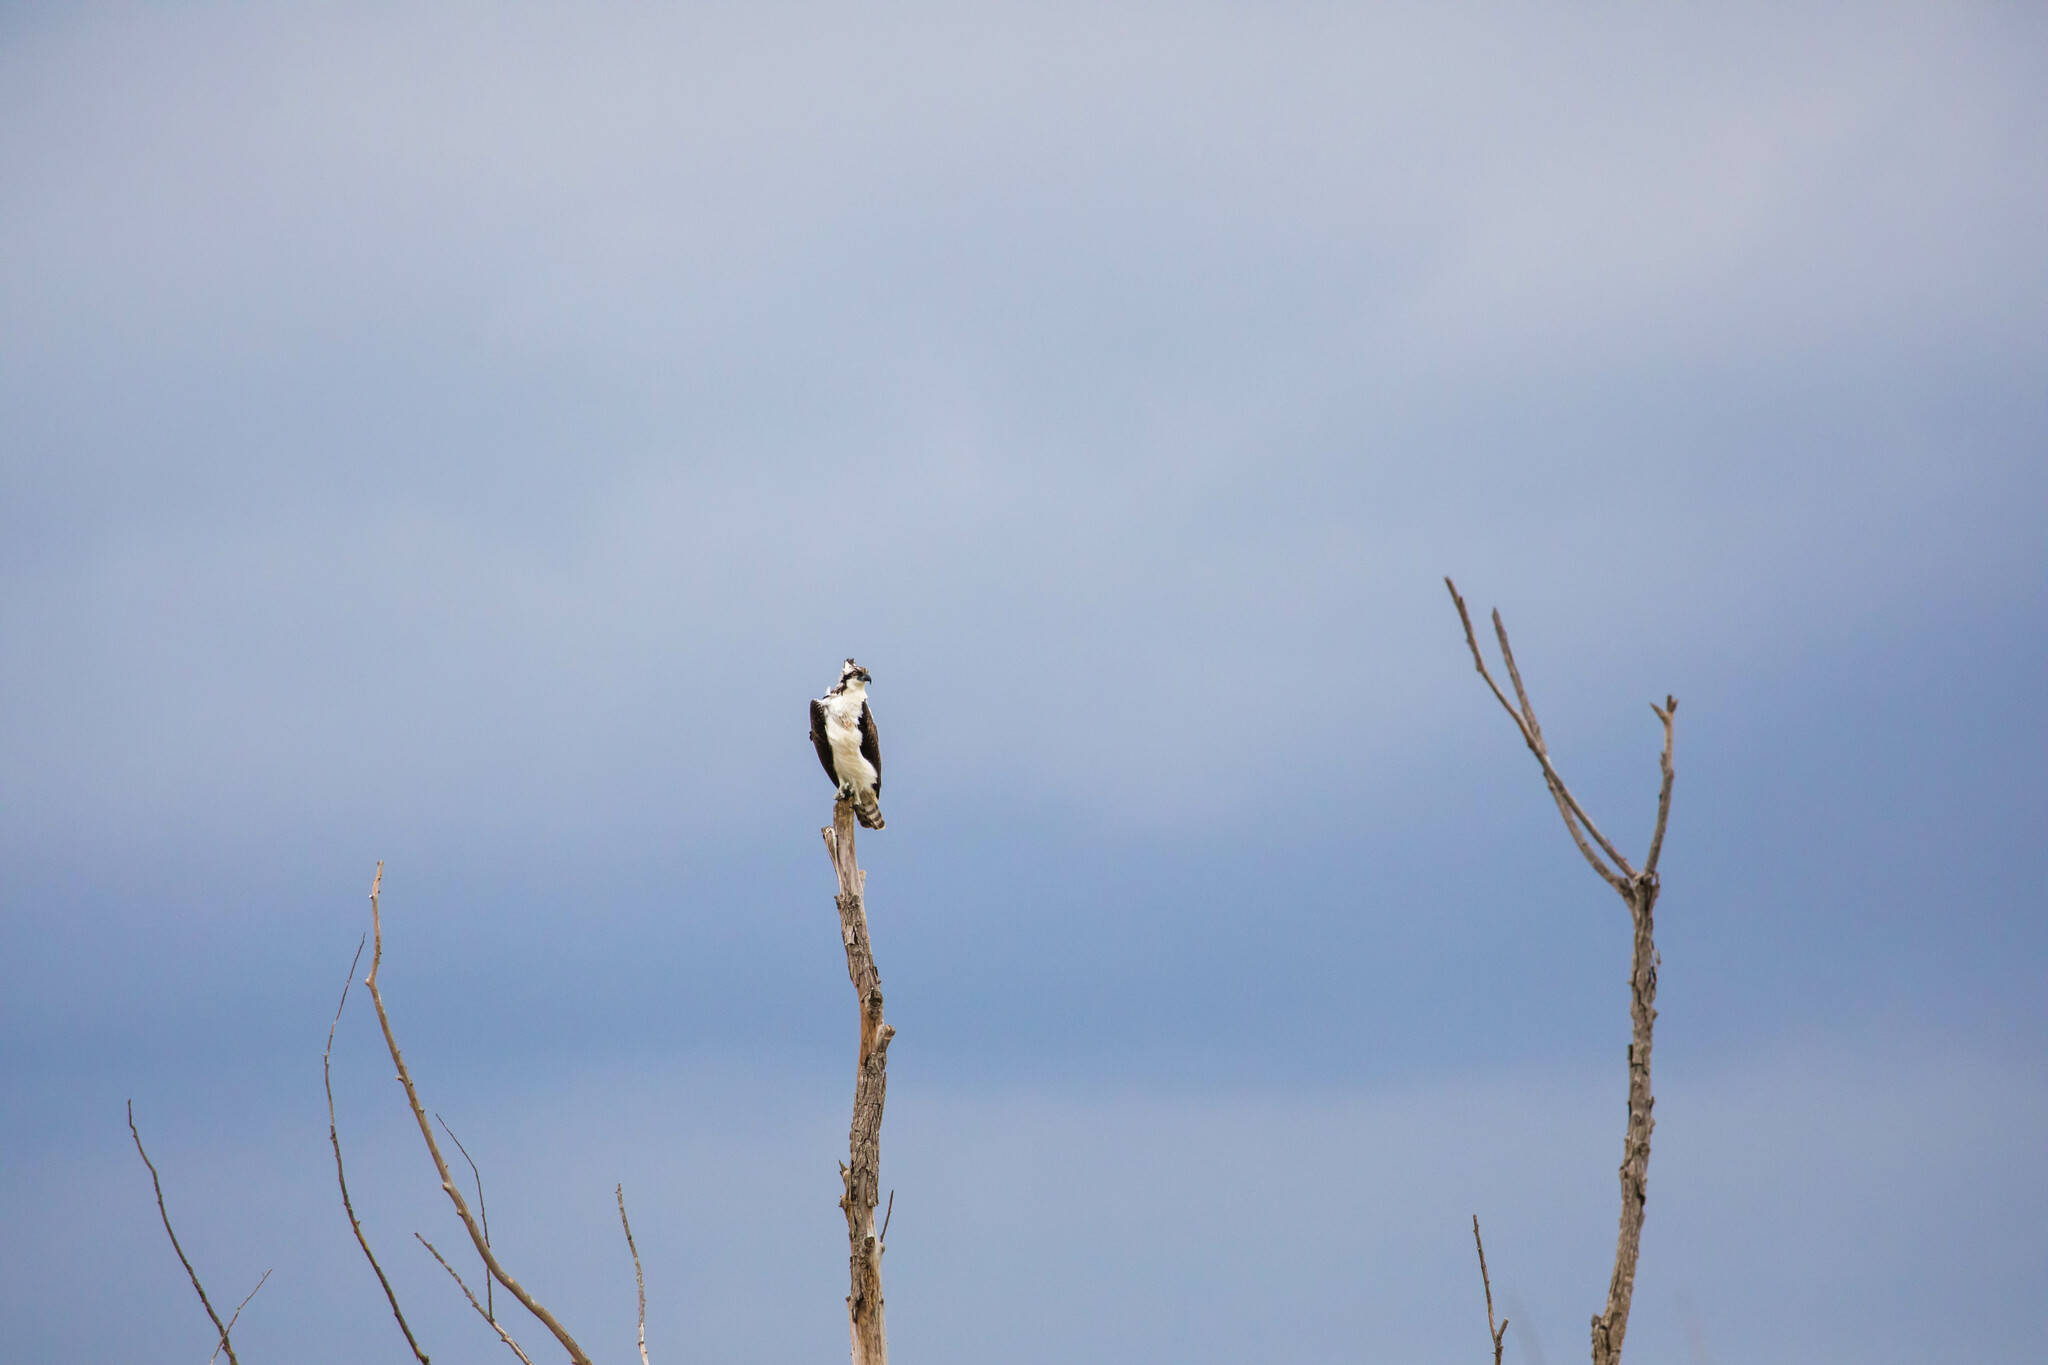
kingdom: Animalia
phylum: Chordata
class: Aves
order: Accipitriformes
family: Pandionidae
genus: Pandion
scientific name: Pandion haliaetus
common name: Osprey
